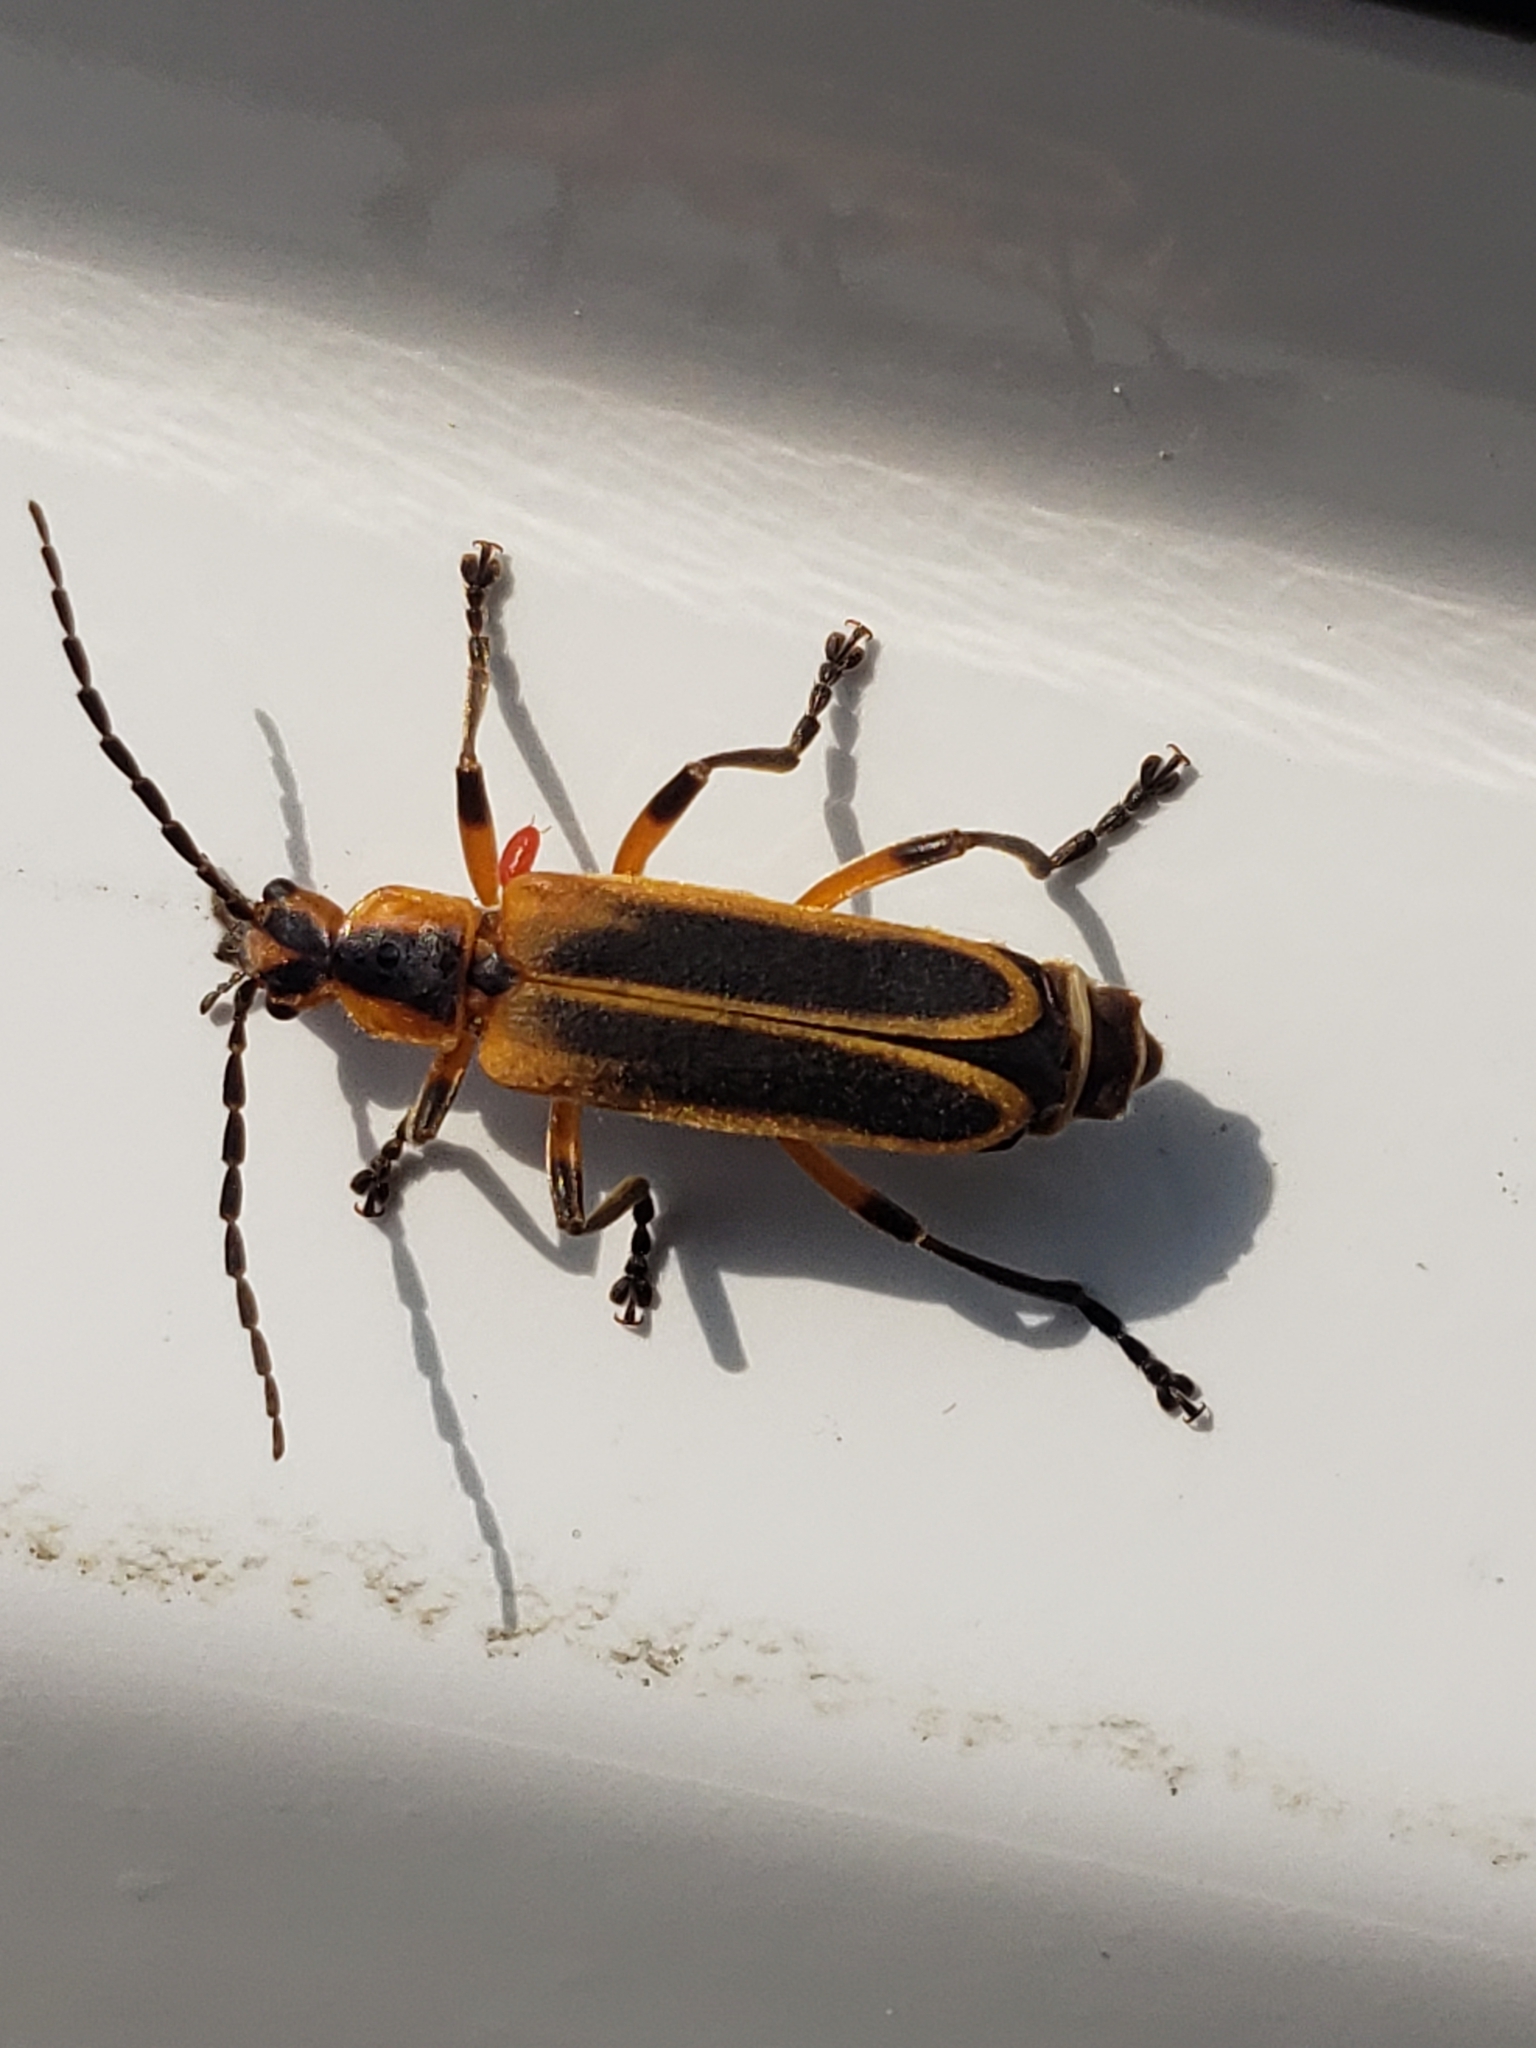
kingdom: Animalia
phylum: Arthropoda
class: Insecta
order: Coleoptera
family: Cantharidae
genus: Chauliognathus
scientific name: Chauliognathus marginatus
